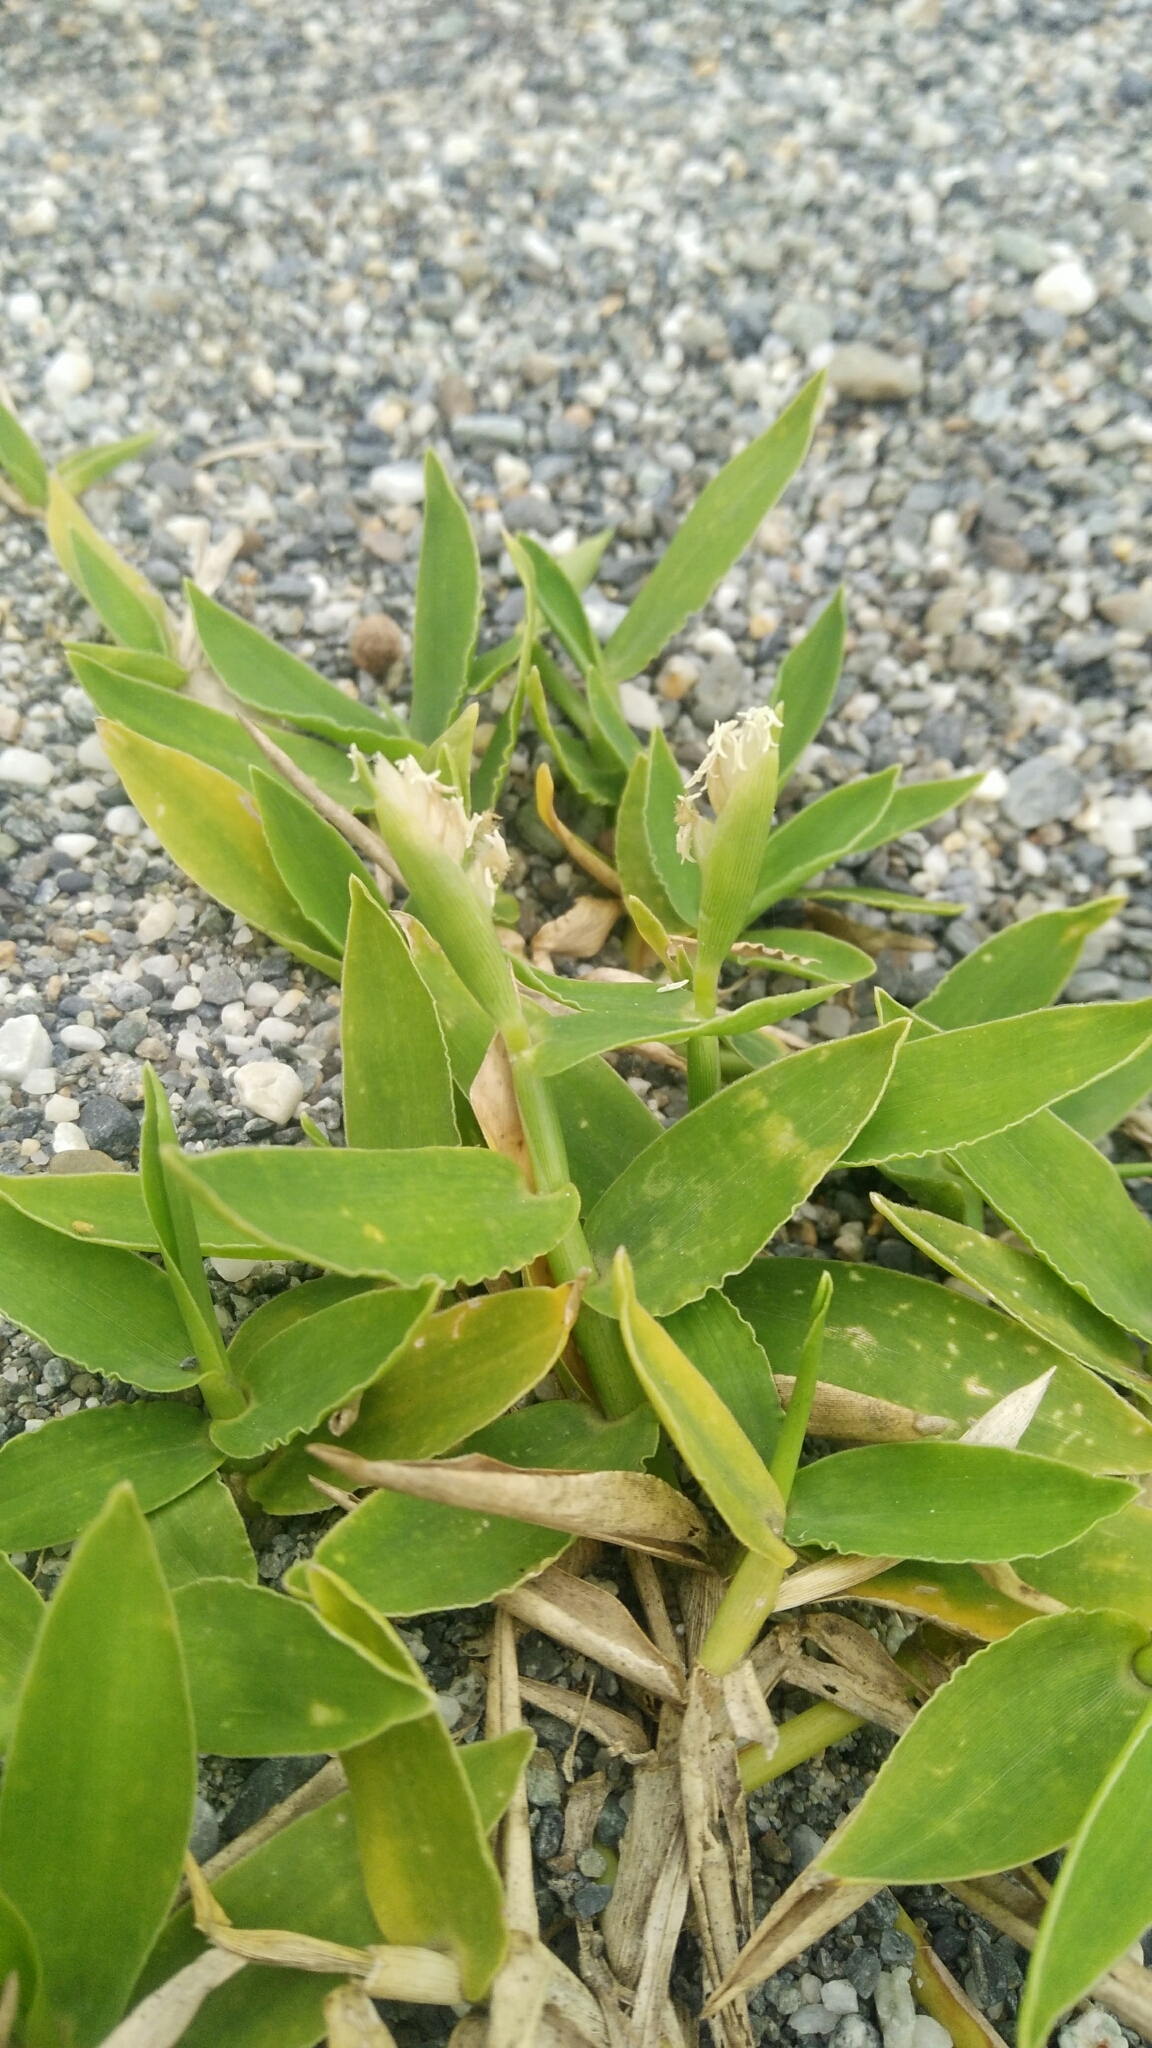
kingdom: Plantae
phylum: Tracheophyta
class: Liliopsida
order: Poales
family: Poaceae
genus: Thuarea
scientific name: Thuarea involuta
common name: Tropical beach grass
